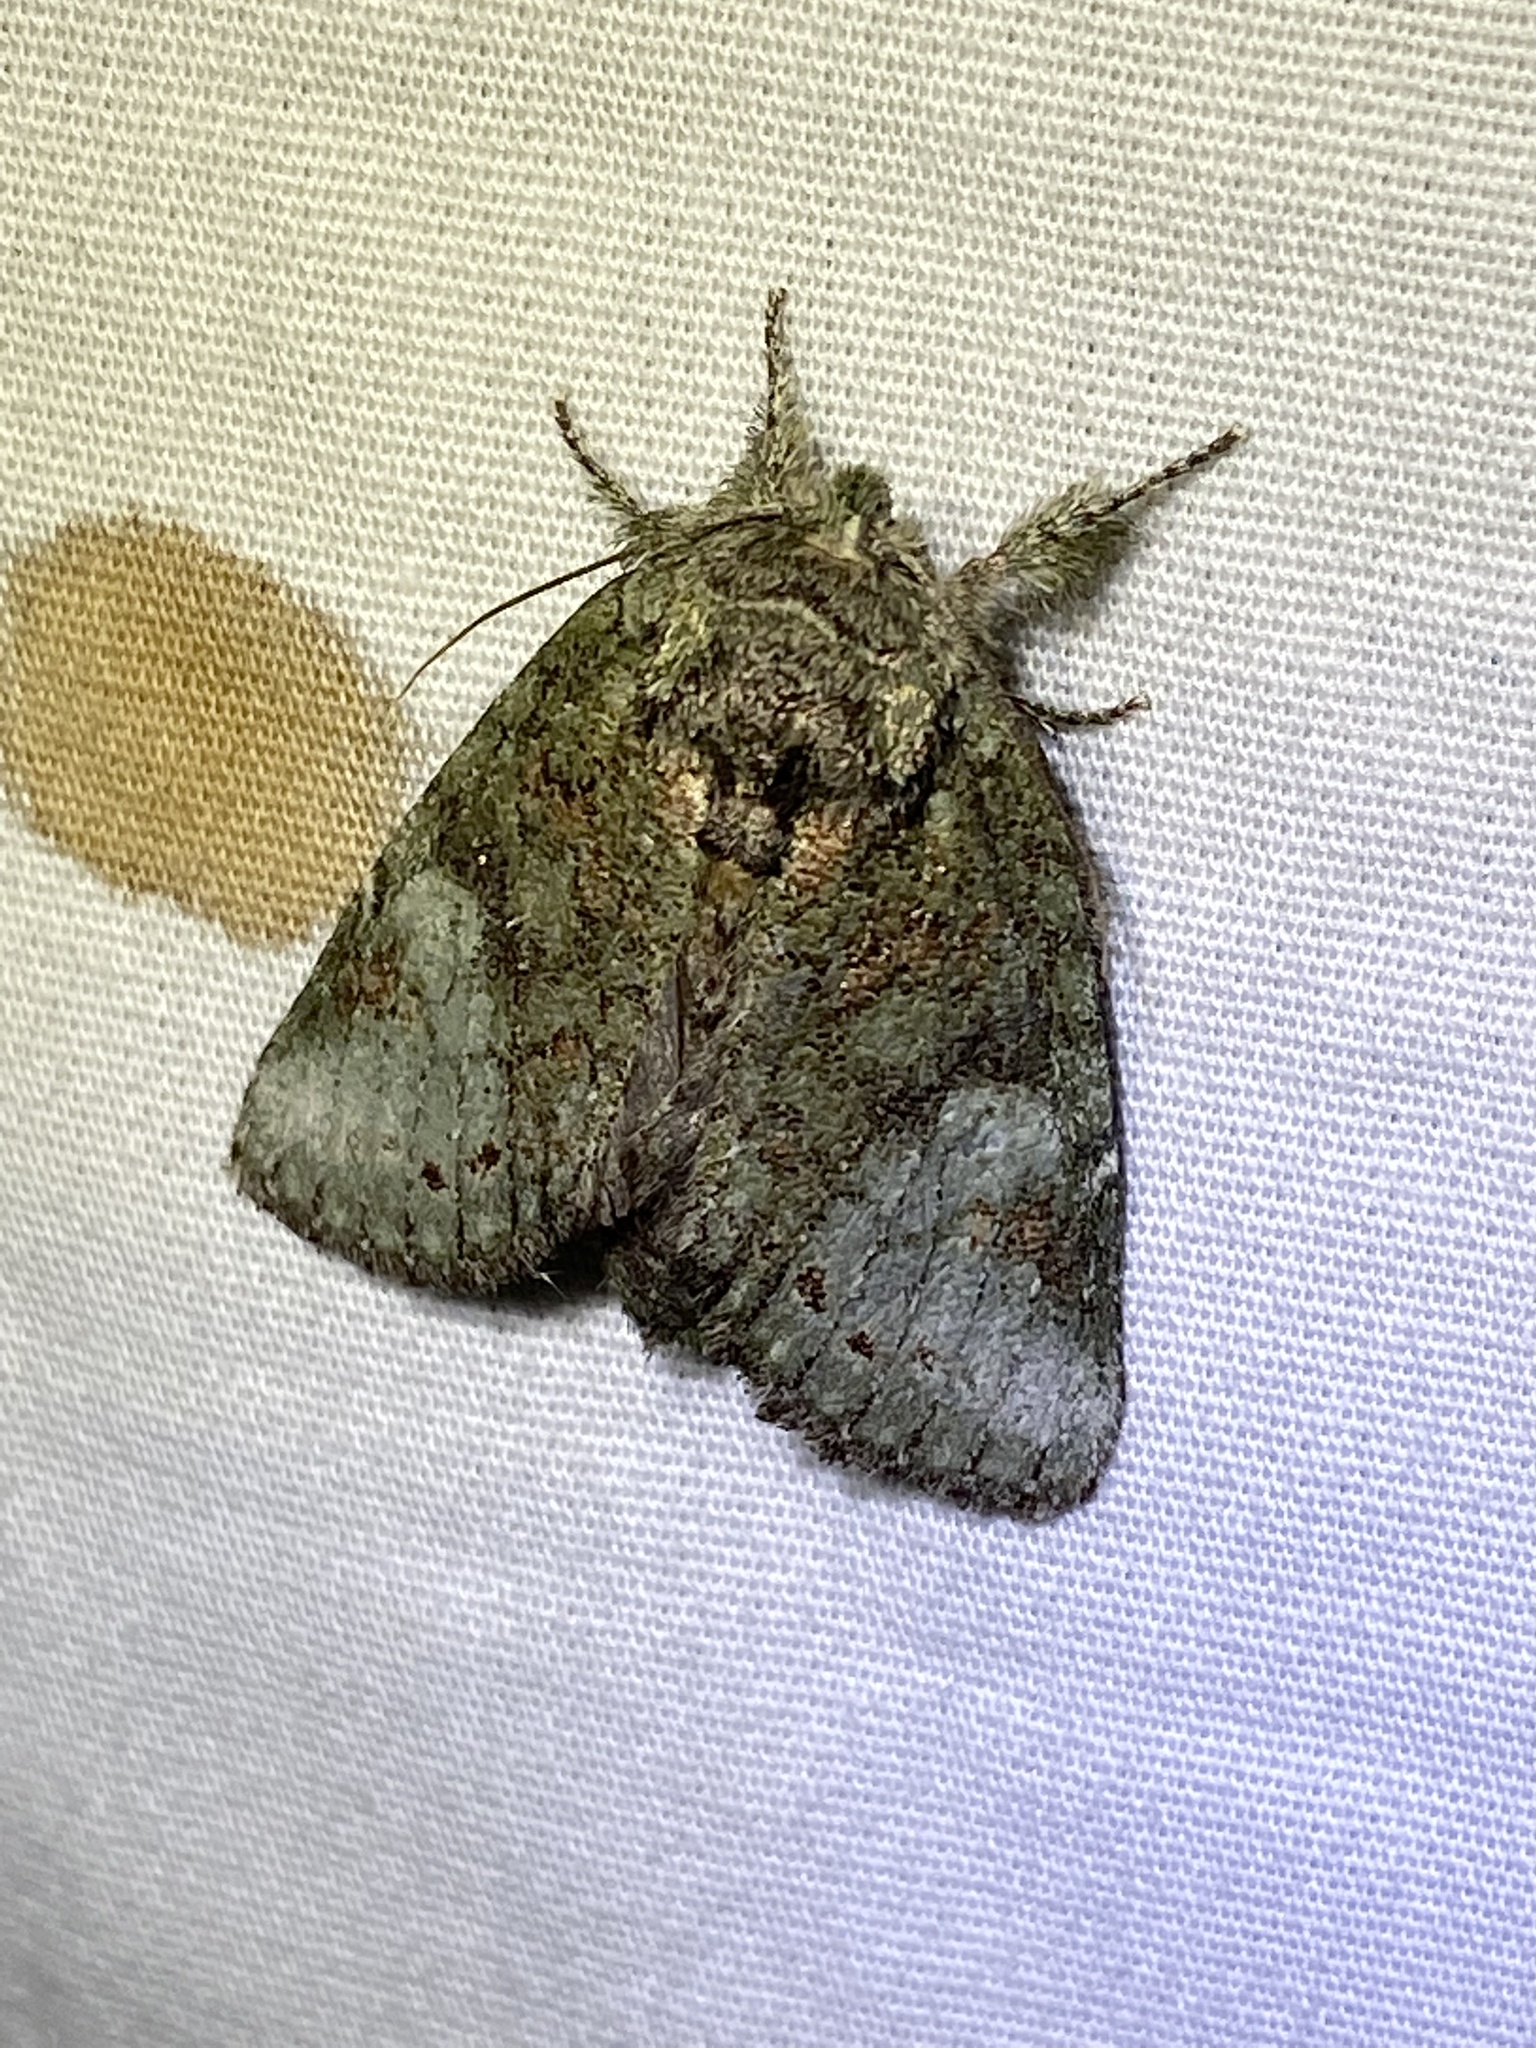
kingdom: Animalia
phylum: Arthropoda
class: Insecta
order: Lepidoptera
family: Notodontidae
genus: Disphragis
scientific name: Disphragis Cecrita guttivitta
